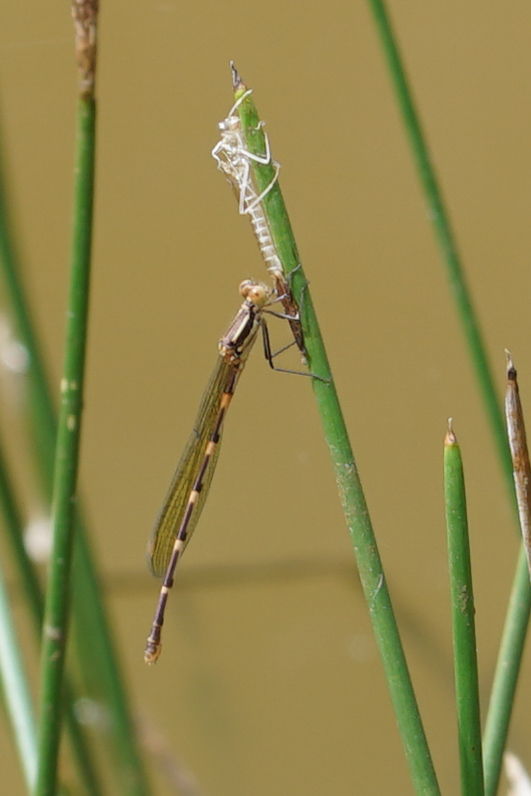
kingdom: Animalia
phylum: Arthropoda
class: Insecta
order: Odonata
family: Lestidae
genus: Austrolestes
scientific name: Austrolestes leda
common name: Wandering ringtail
